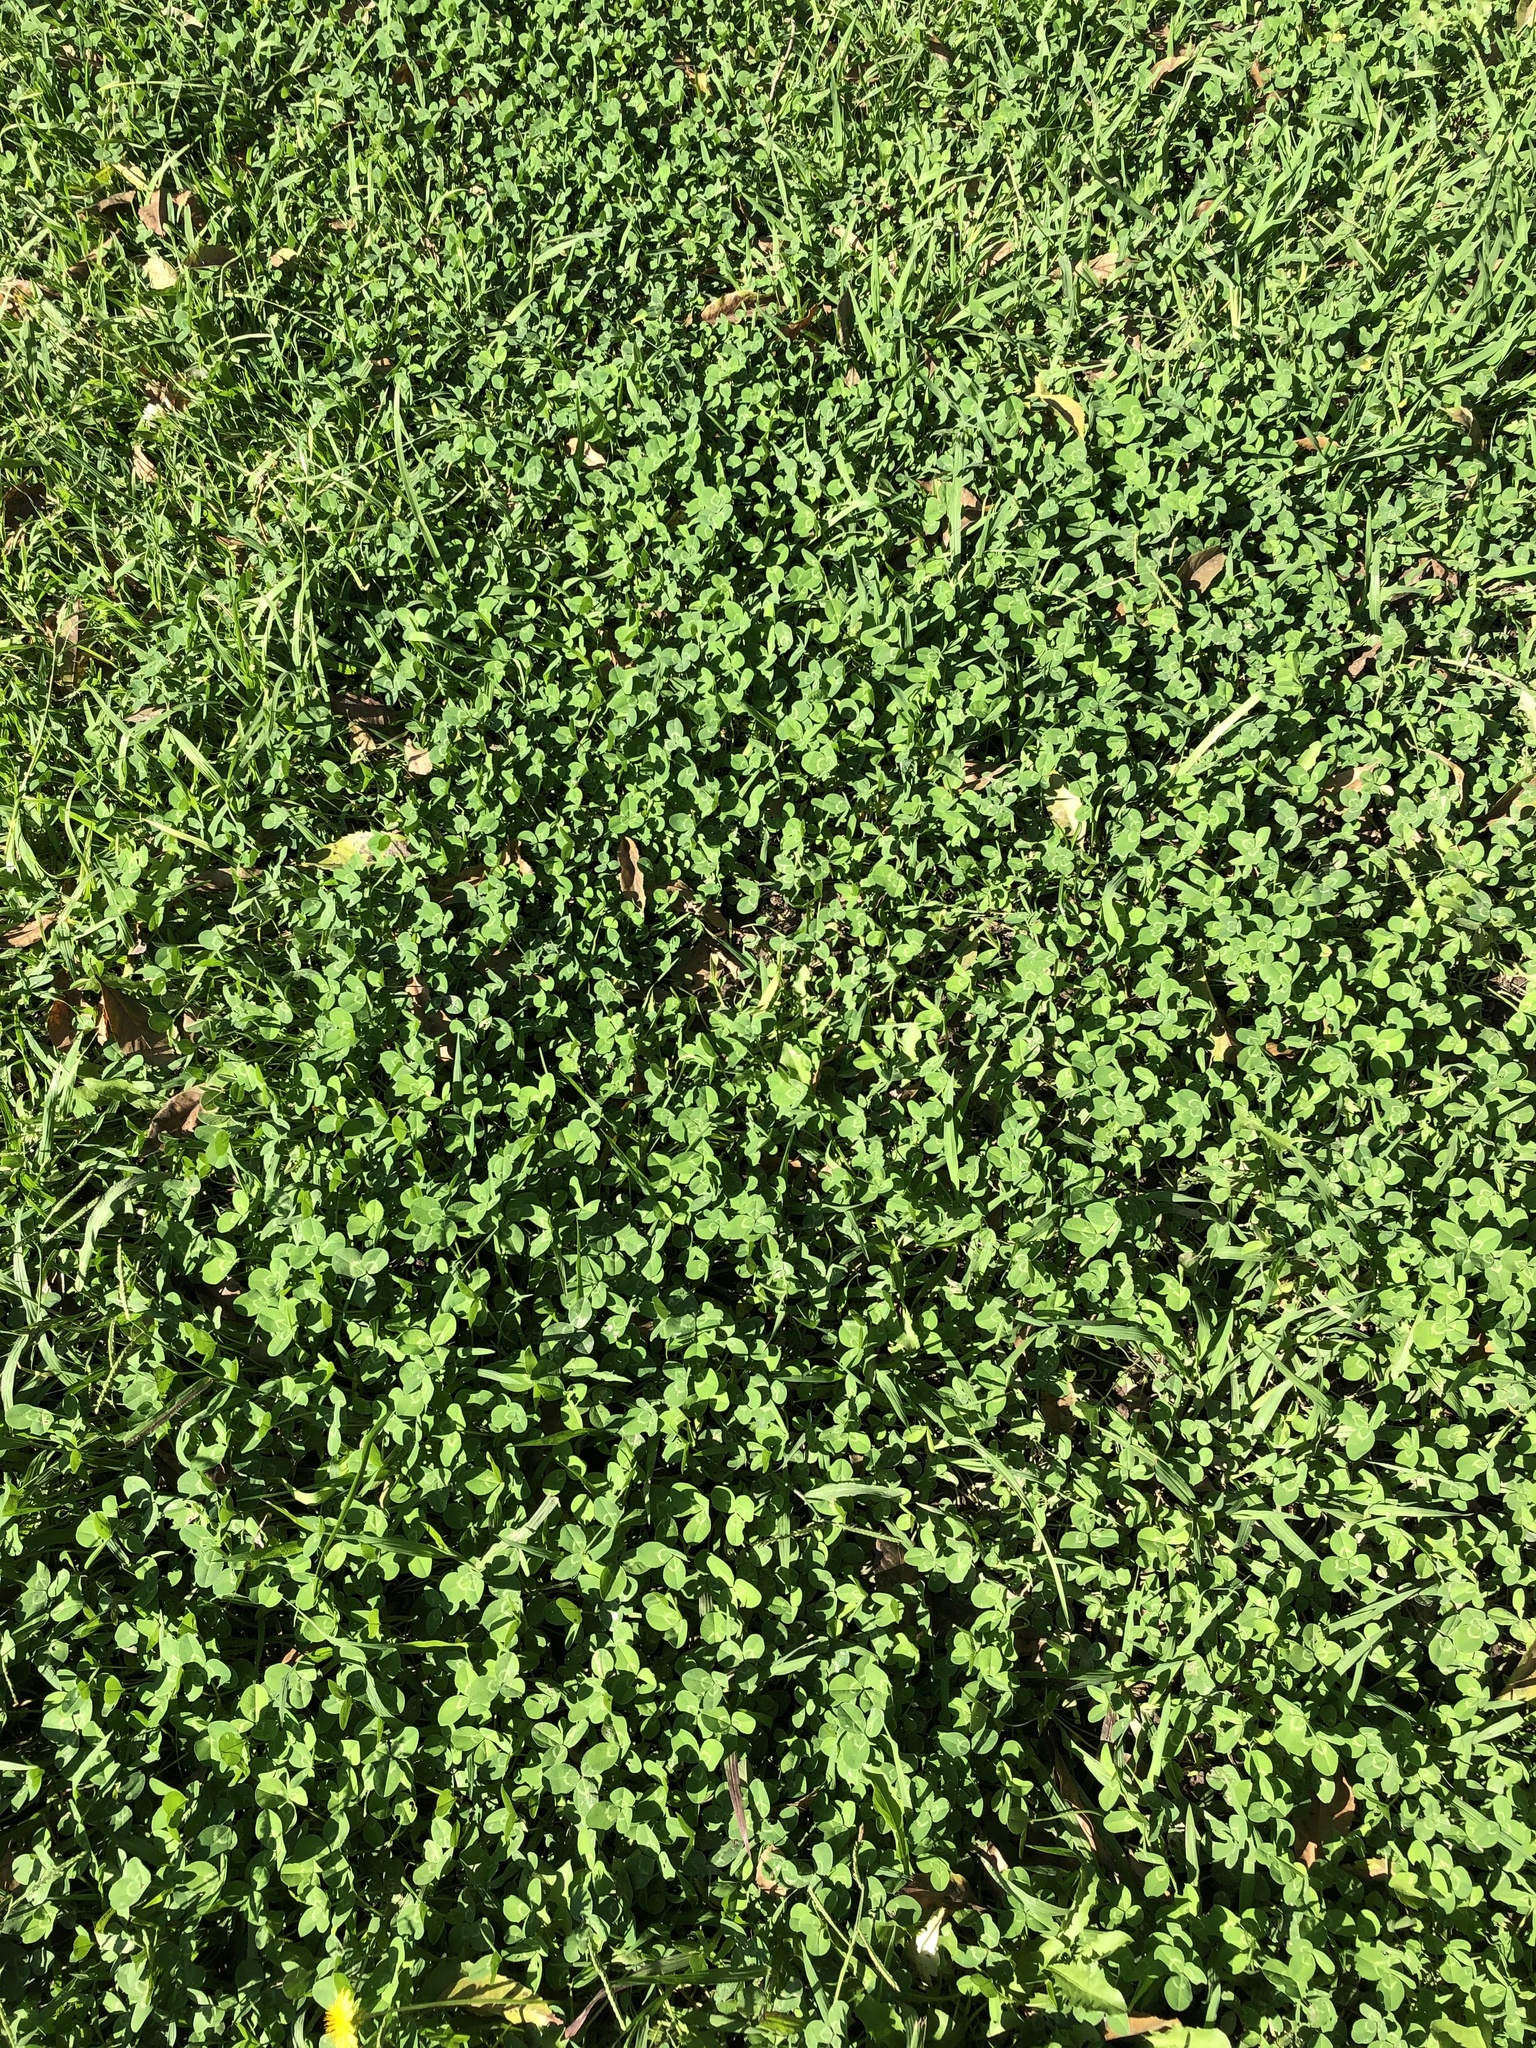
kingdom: Plantae
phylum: Tracheophyta
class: Magnoliopsida
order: Fabales
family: Fabaceae
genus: Trifolium
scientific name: Trifolium repens
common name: White clover
